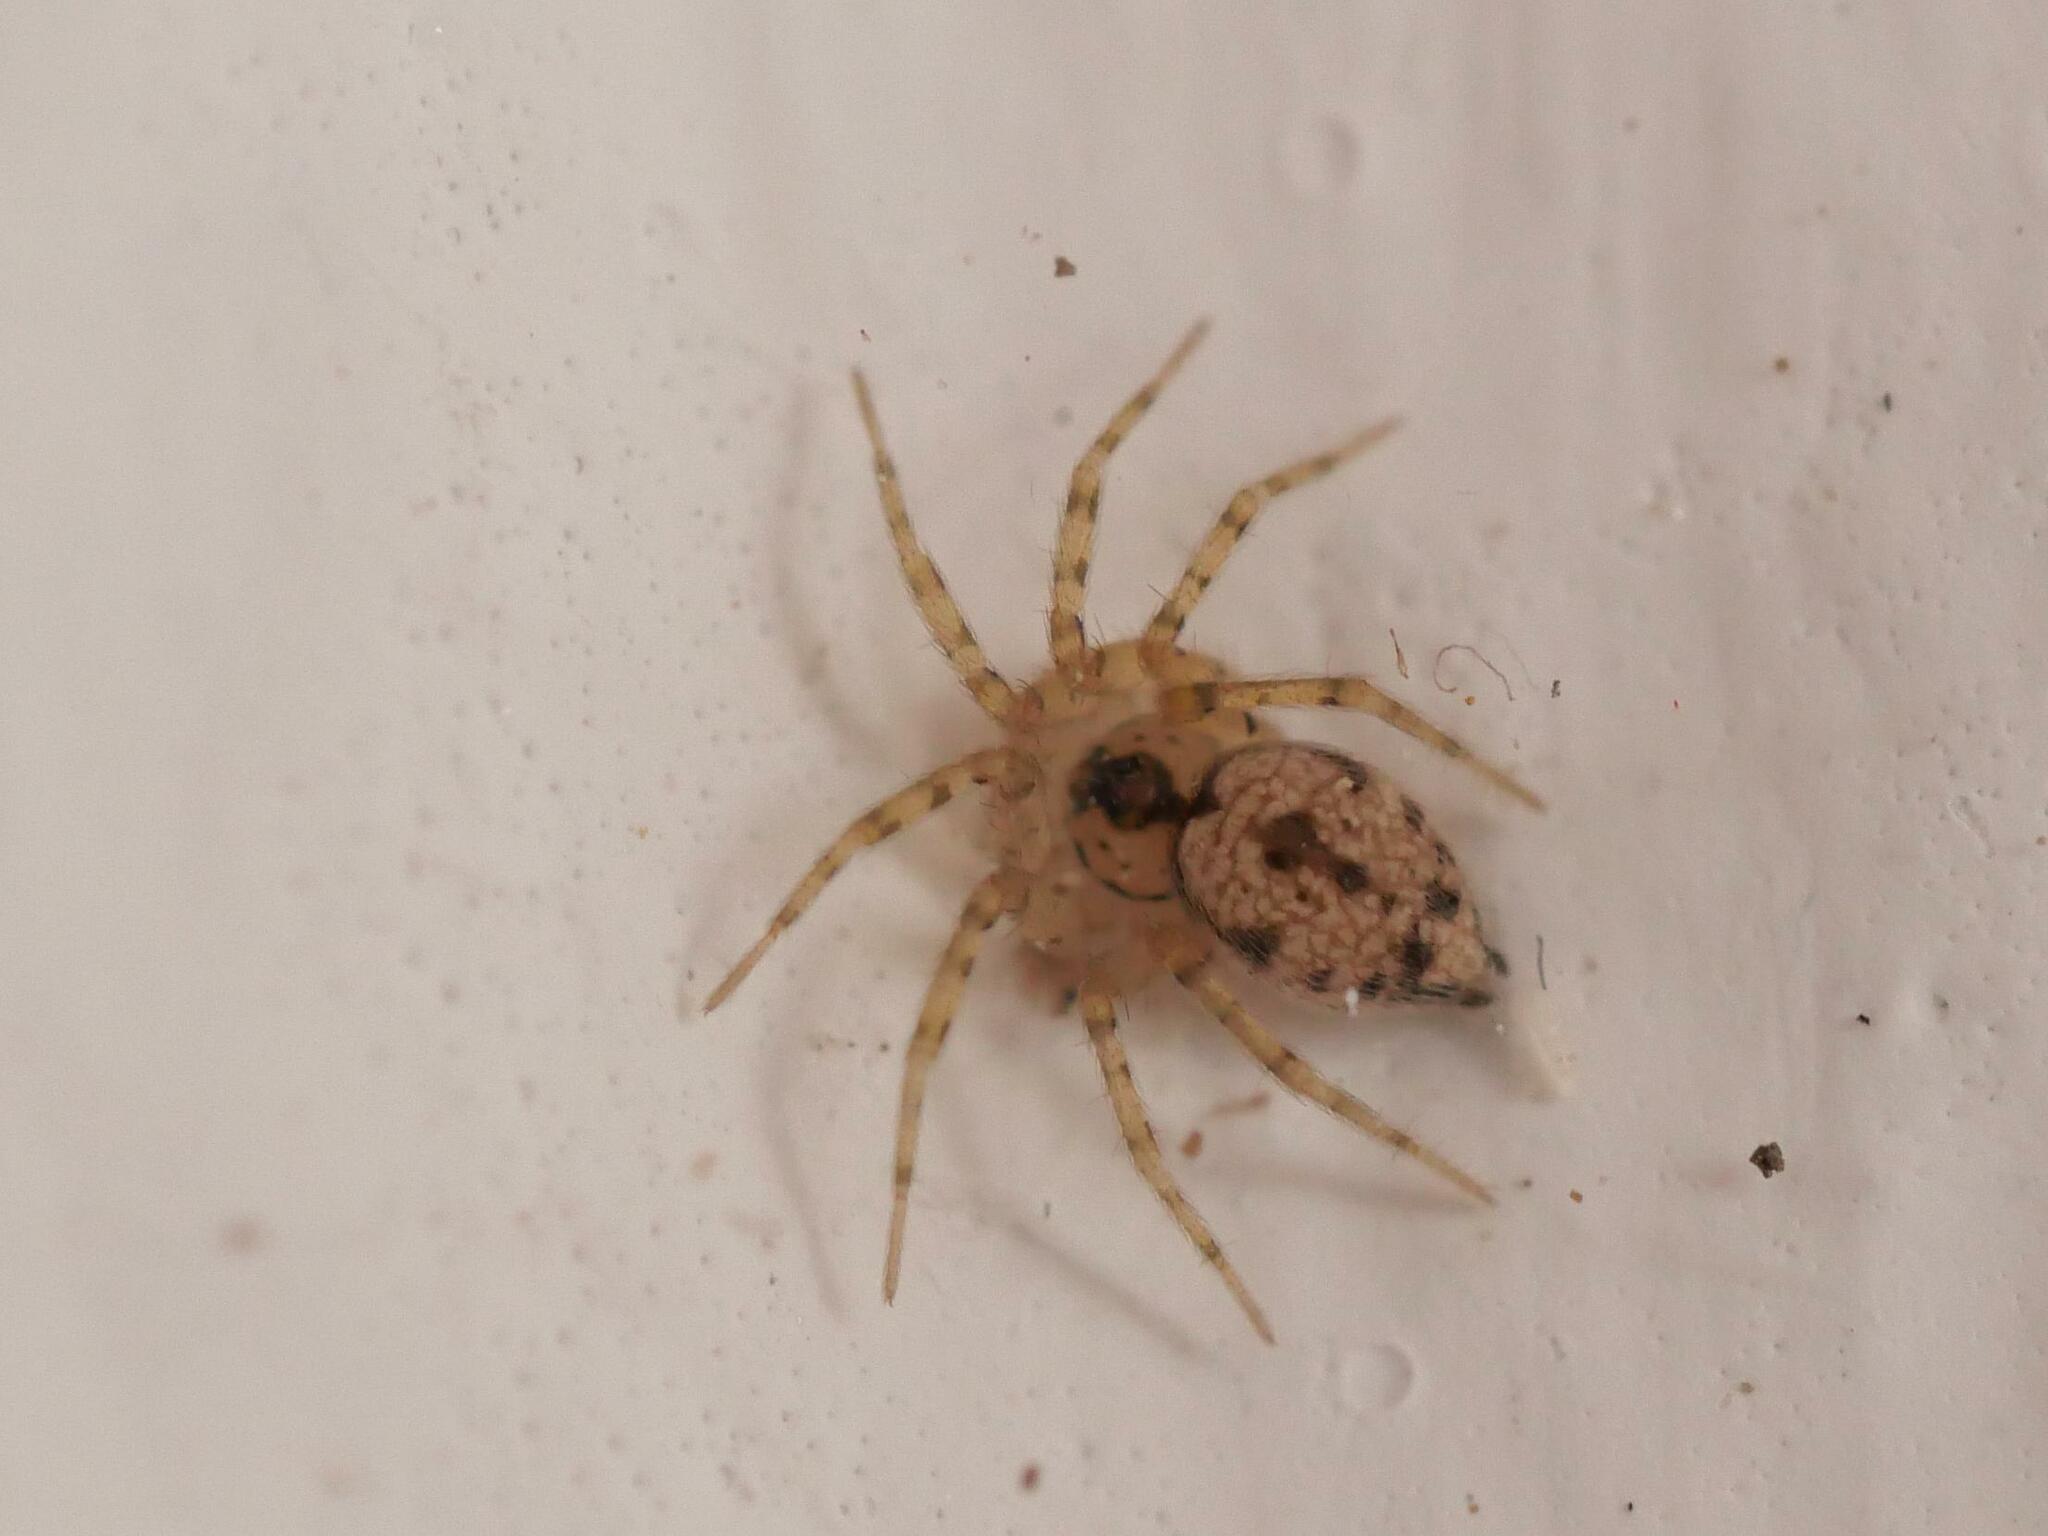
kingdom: Animalia
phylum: Arthropoda
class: Arachnida
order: Araneae
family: Oecobiidae
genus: Oecobius
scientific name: Oecobius
